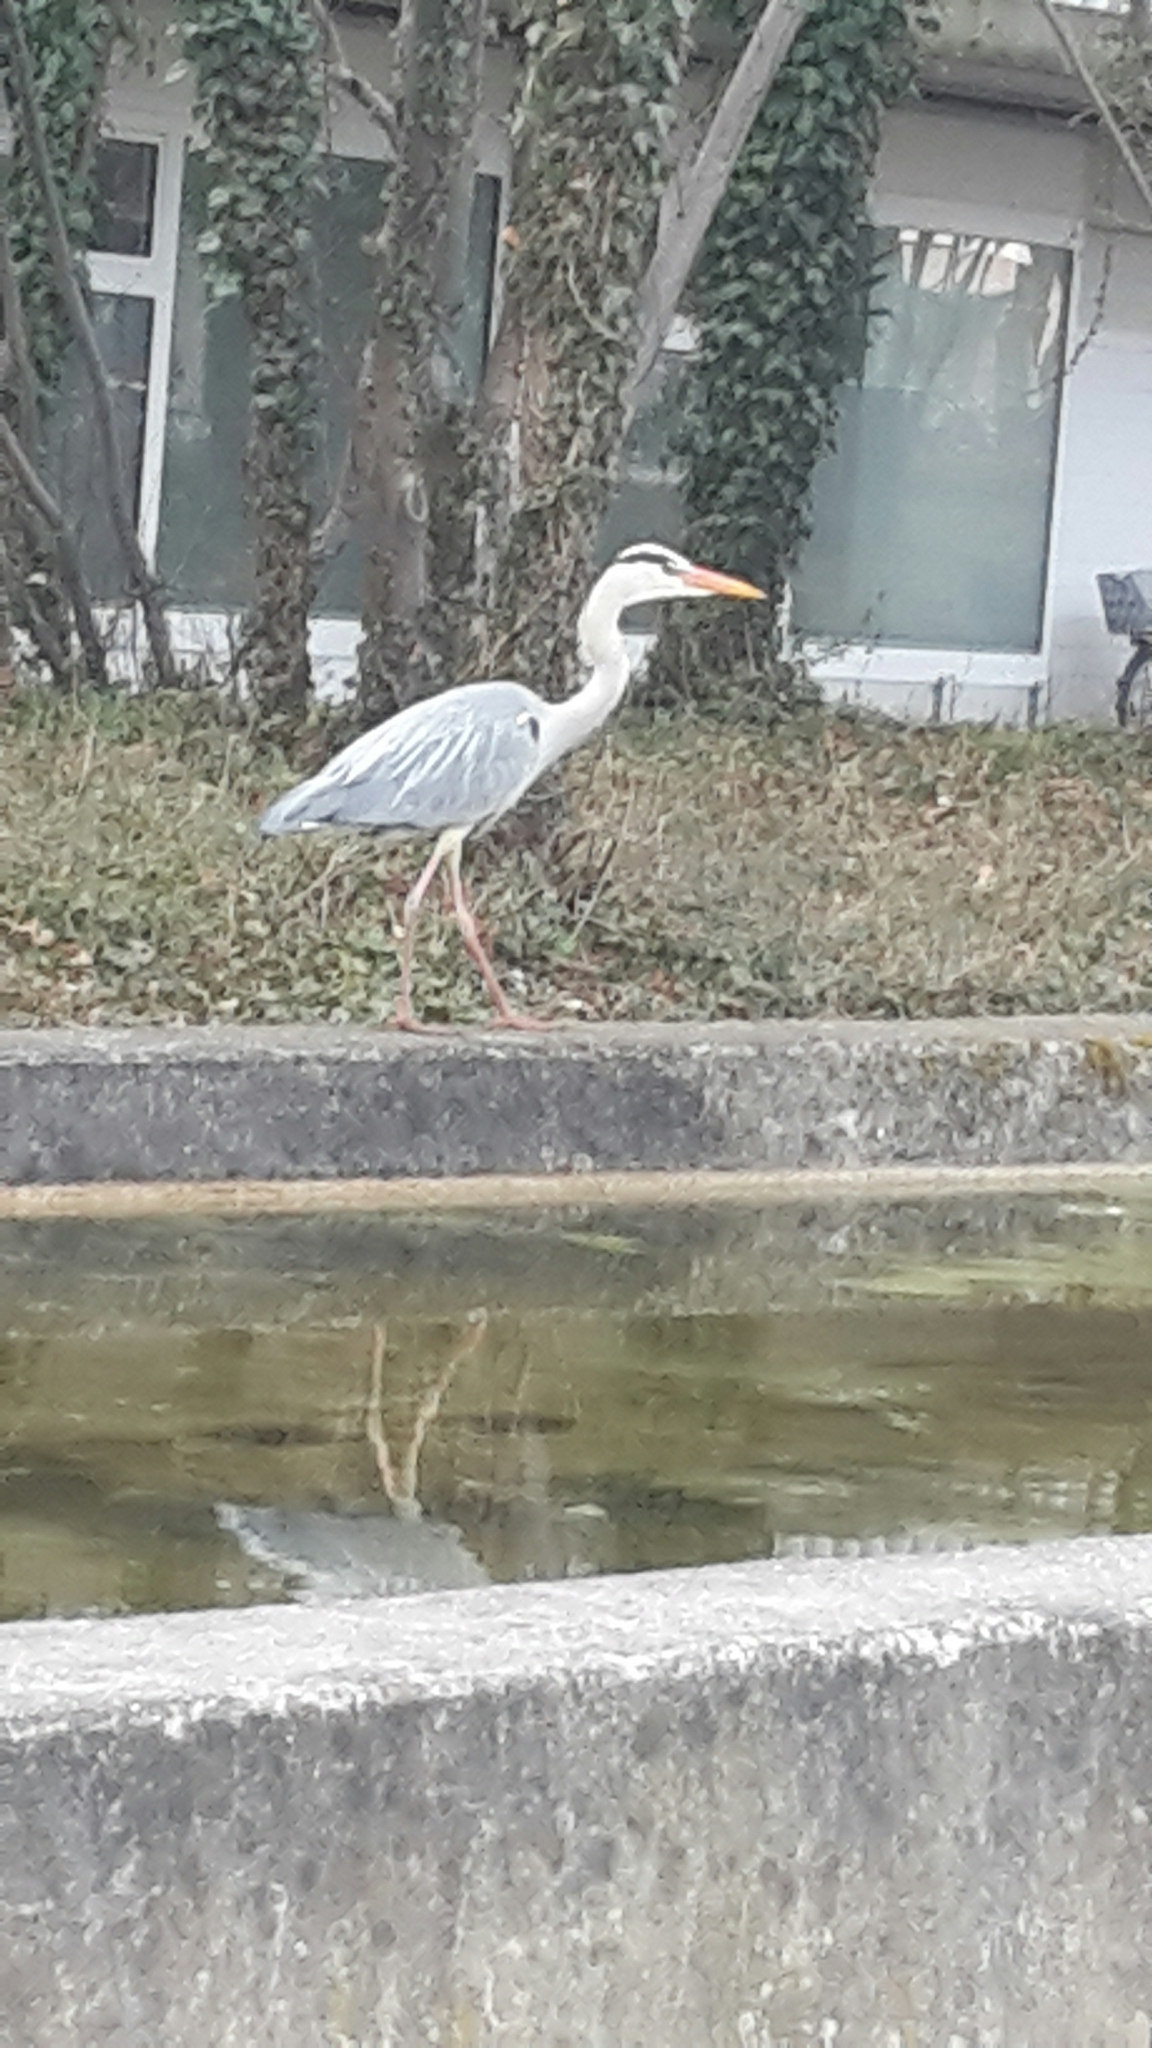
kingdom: Animalia
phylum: Chordata
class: Aves
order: Pelecaniformes
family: Ardeidae
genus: Ardea
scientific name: Ardea cinerea
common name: Grey heron
